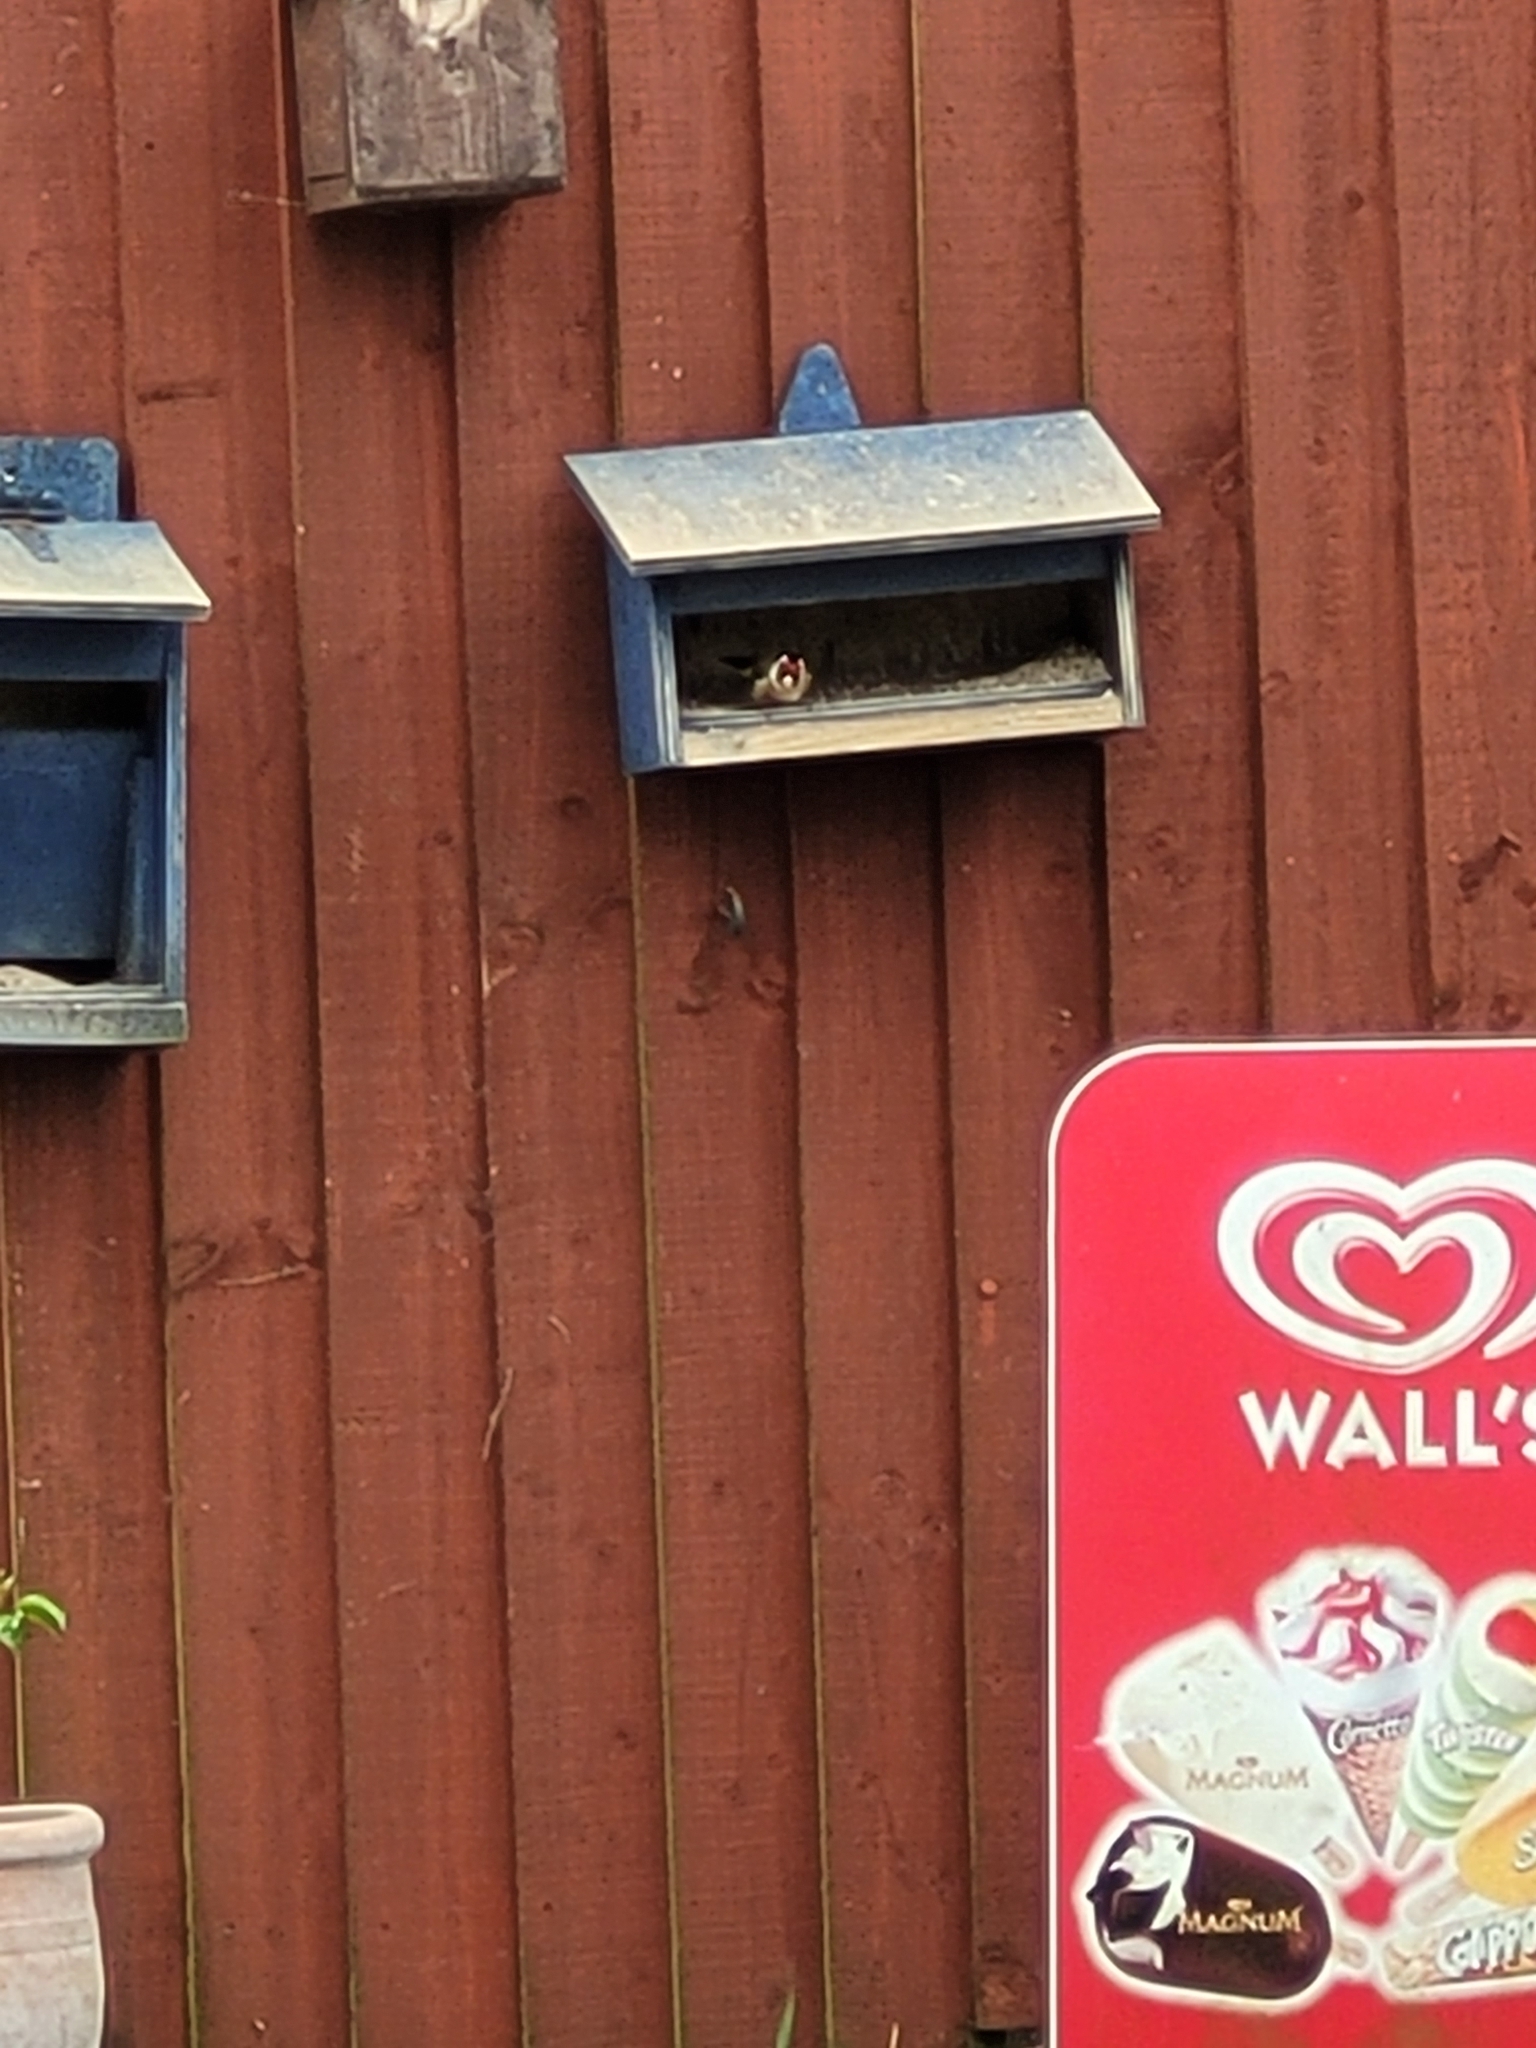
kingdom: Animalia
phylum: Chordata
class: Aves
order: Passeriformes
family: Fringillidae
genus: Carduelis
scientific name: Carduelis carduelis
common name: European goldfinch
